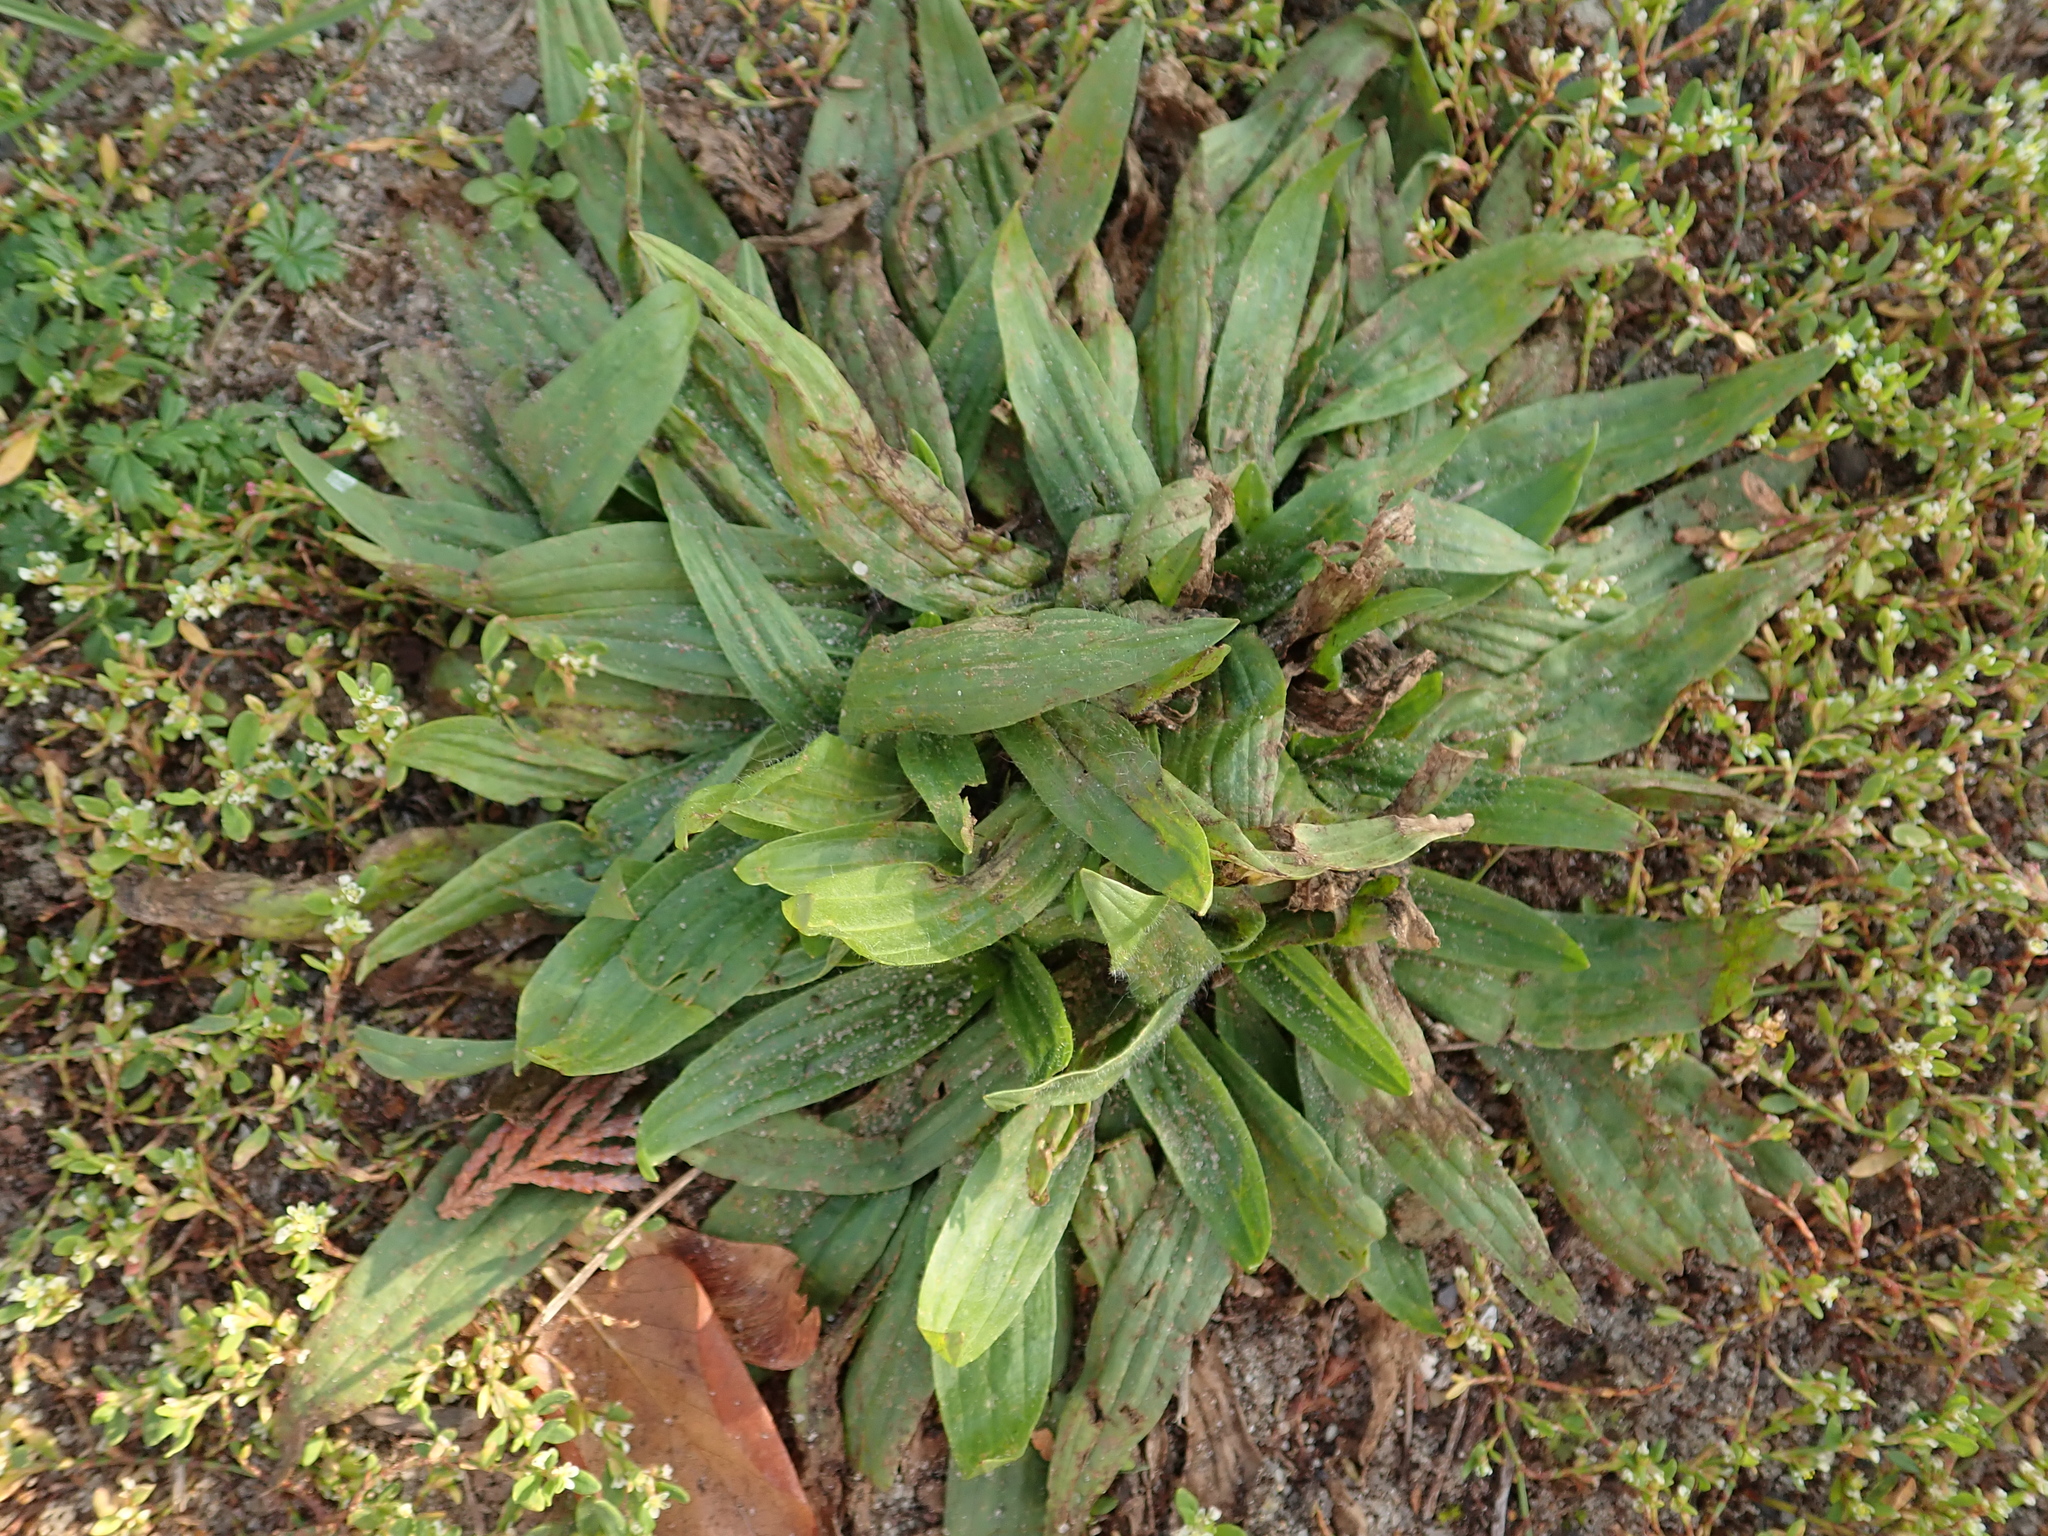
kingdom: Plantae
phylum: Tracheophyta
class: Magnoliopsida
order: Lamiales
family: Plantaginaceae
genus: Plantago
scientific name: Plantago lanceolata
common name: Ribwort plantain
